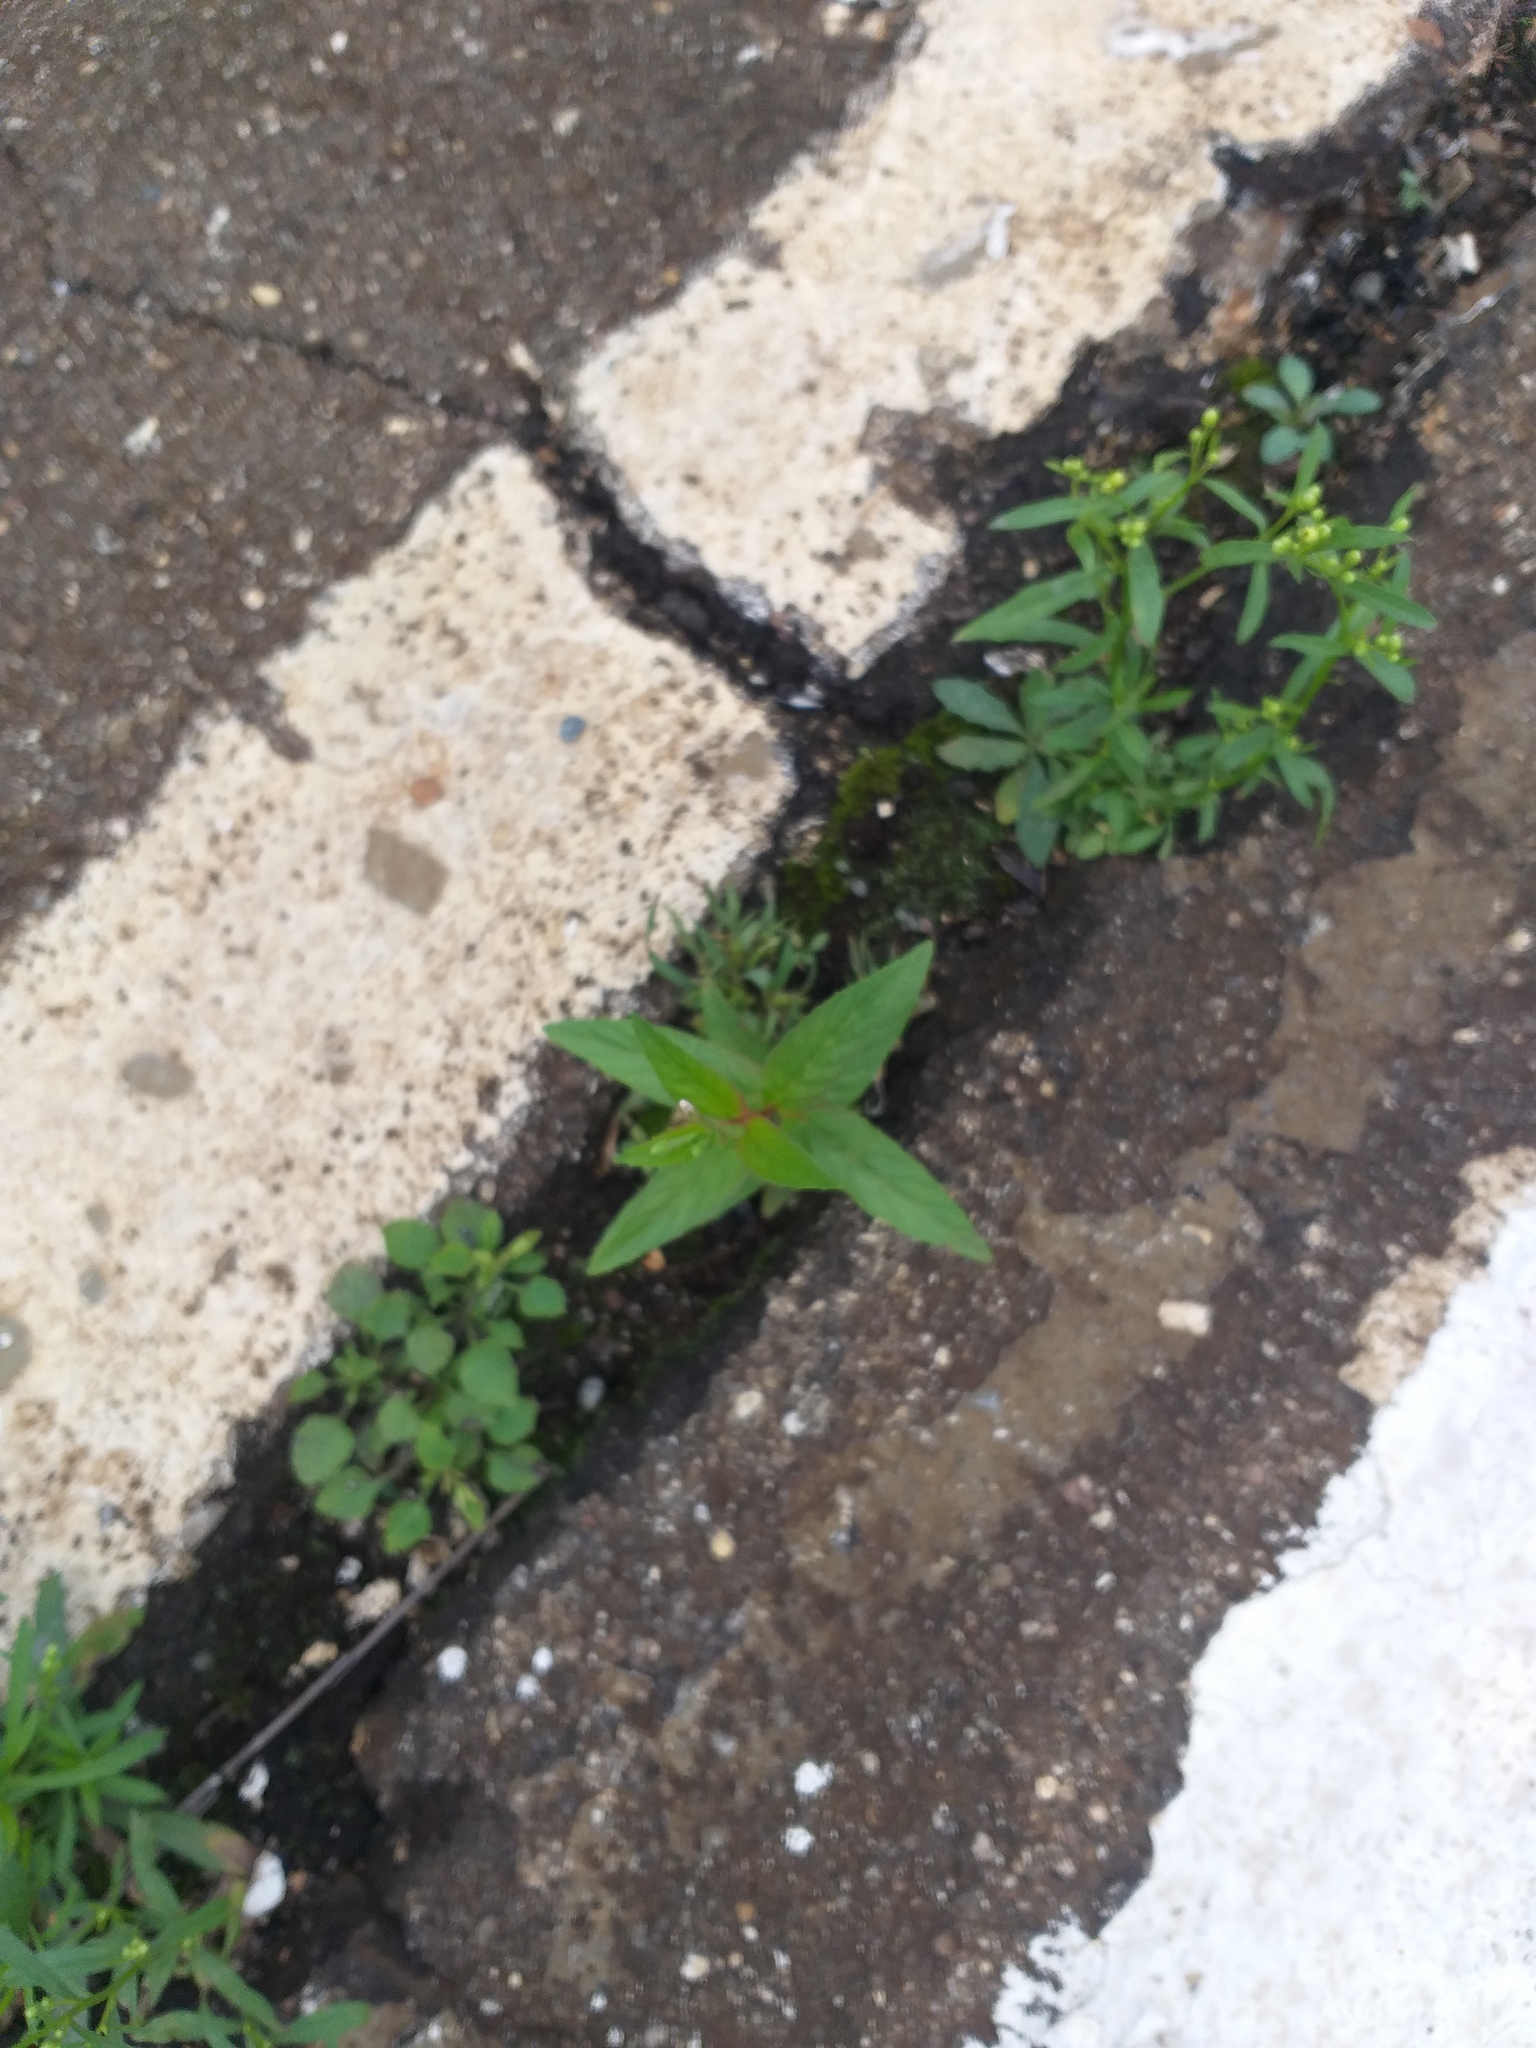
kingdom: Plantae
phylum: Tracheophyta
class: Magnoliopsida
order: Myrtales
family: Onagraceae
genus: Epilobium
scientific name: Epilobium pseudorubescens
